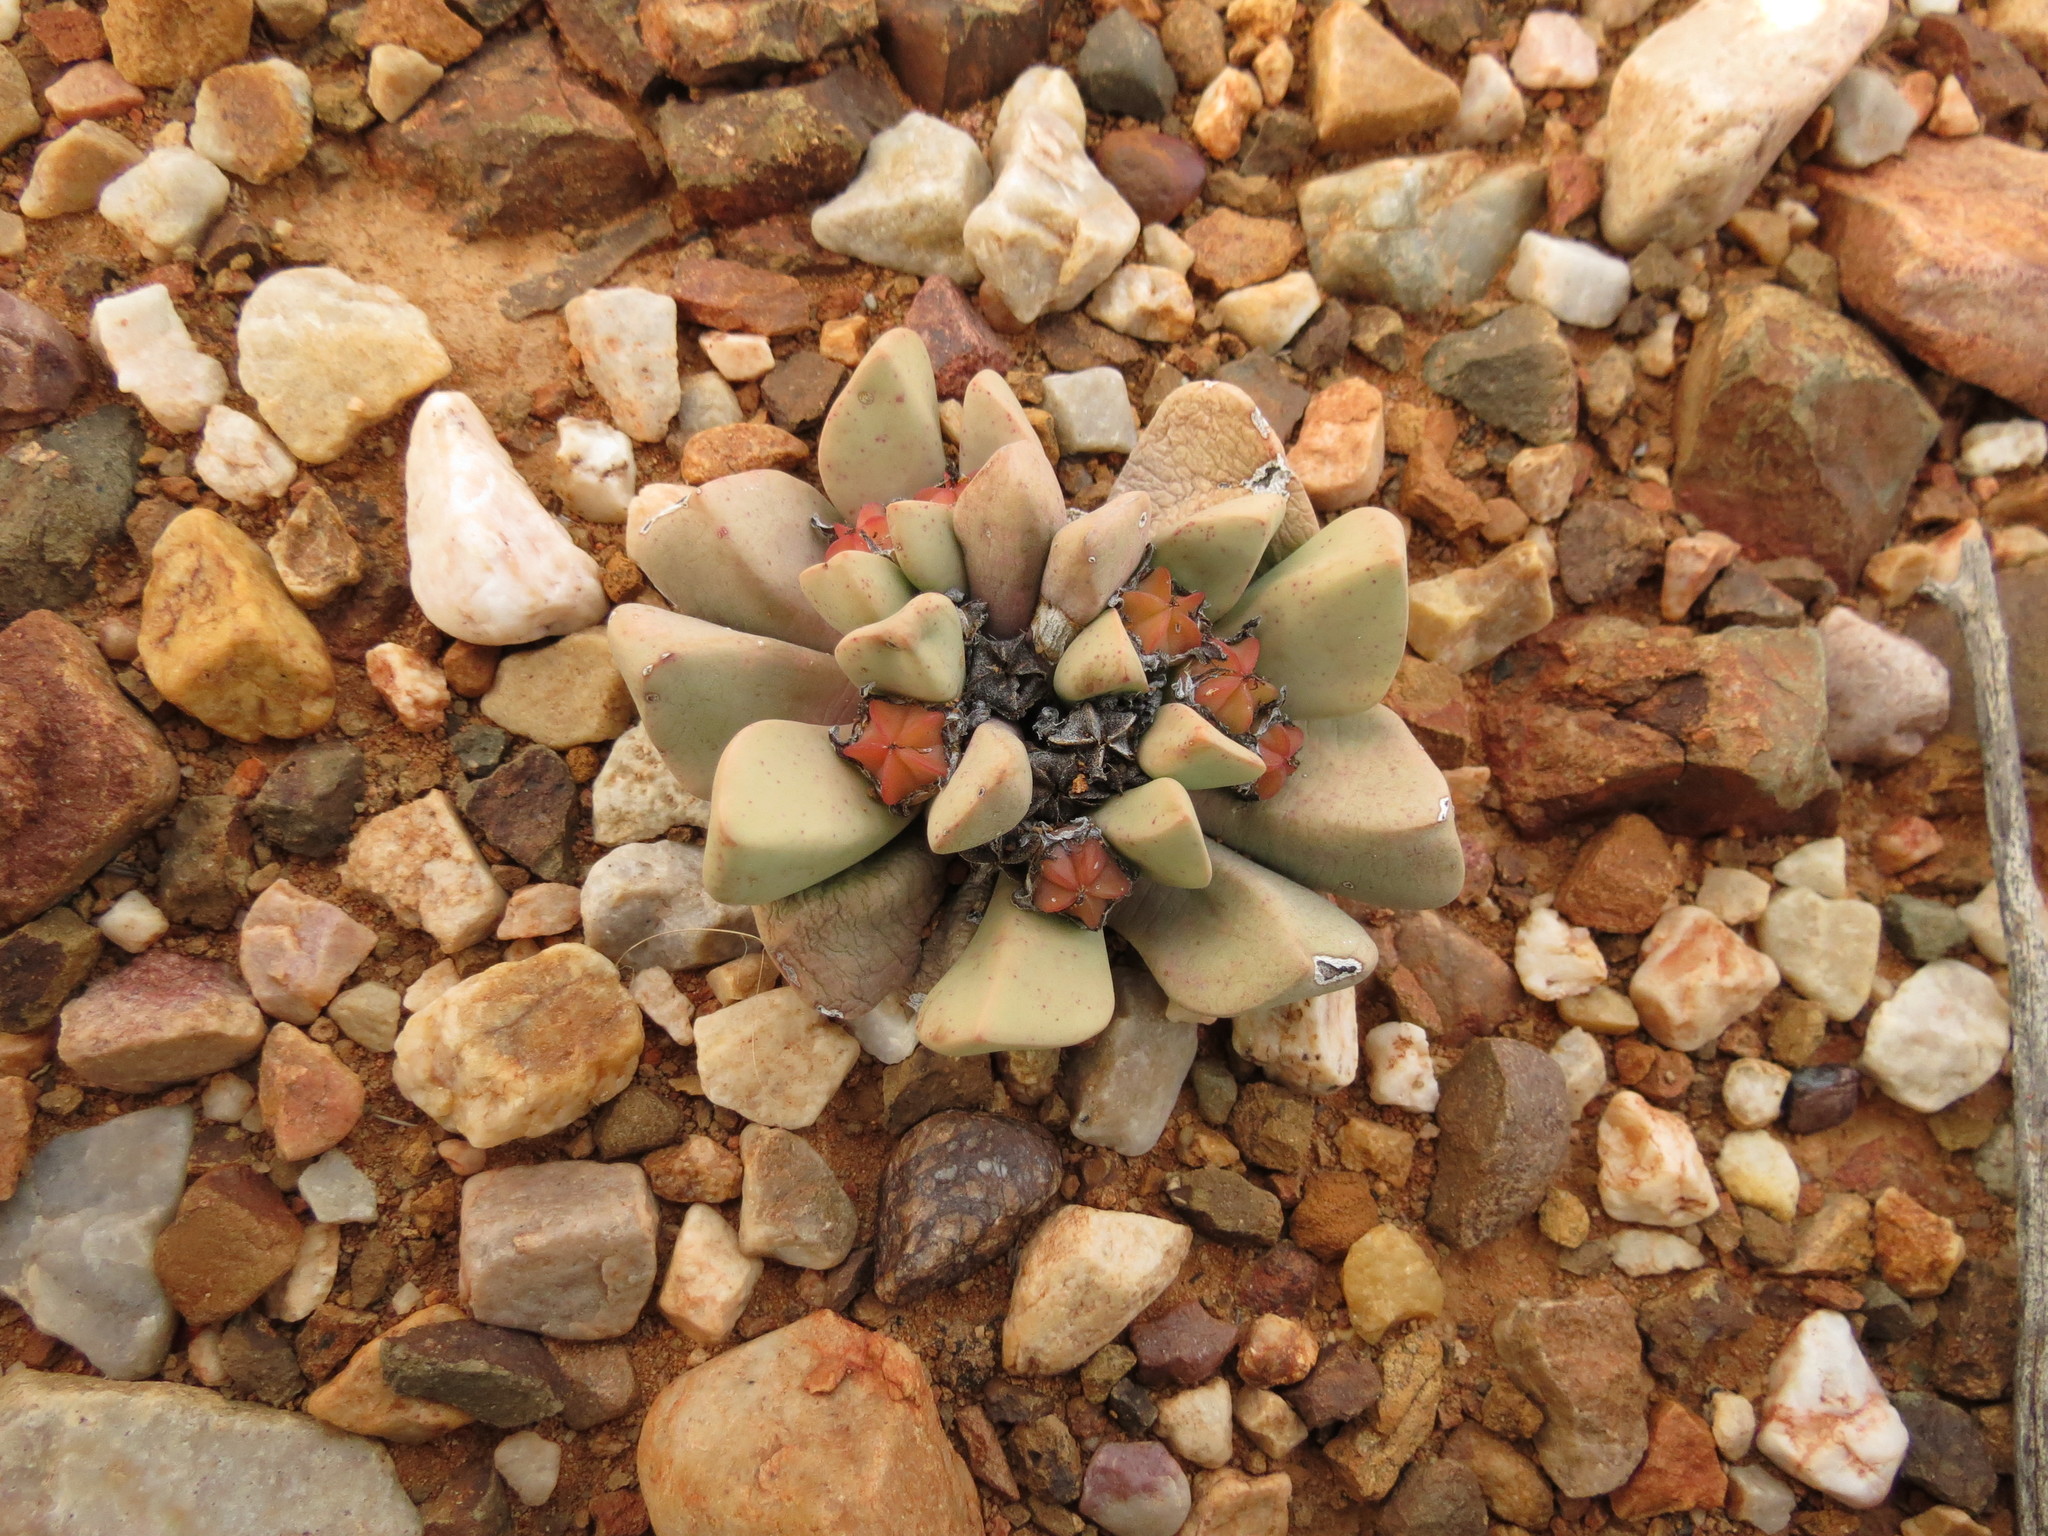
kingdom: Plantae
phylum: Tracheophyta
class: Magnoliopsida
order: Caryophyllales
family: Aizoaceae
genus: Bijlia
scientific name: Bijlia dilatata
